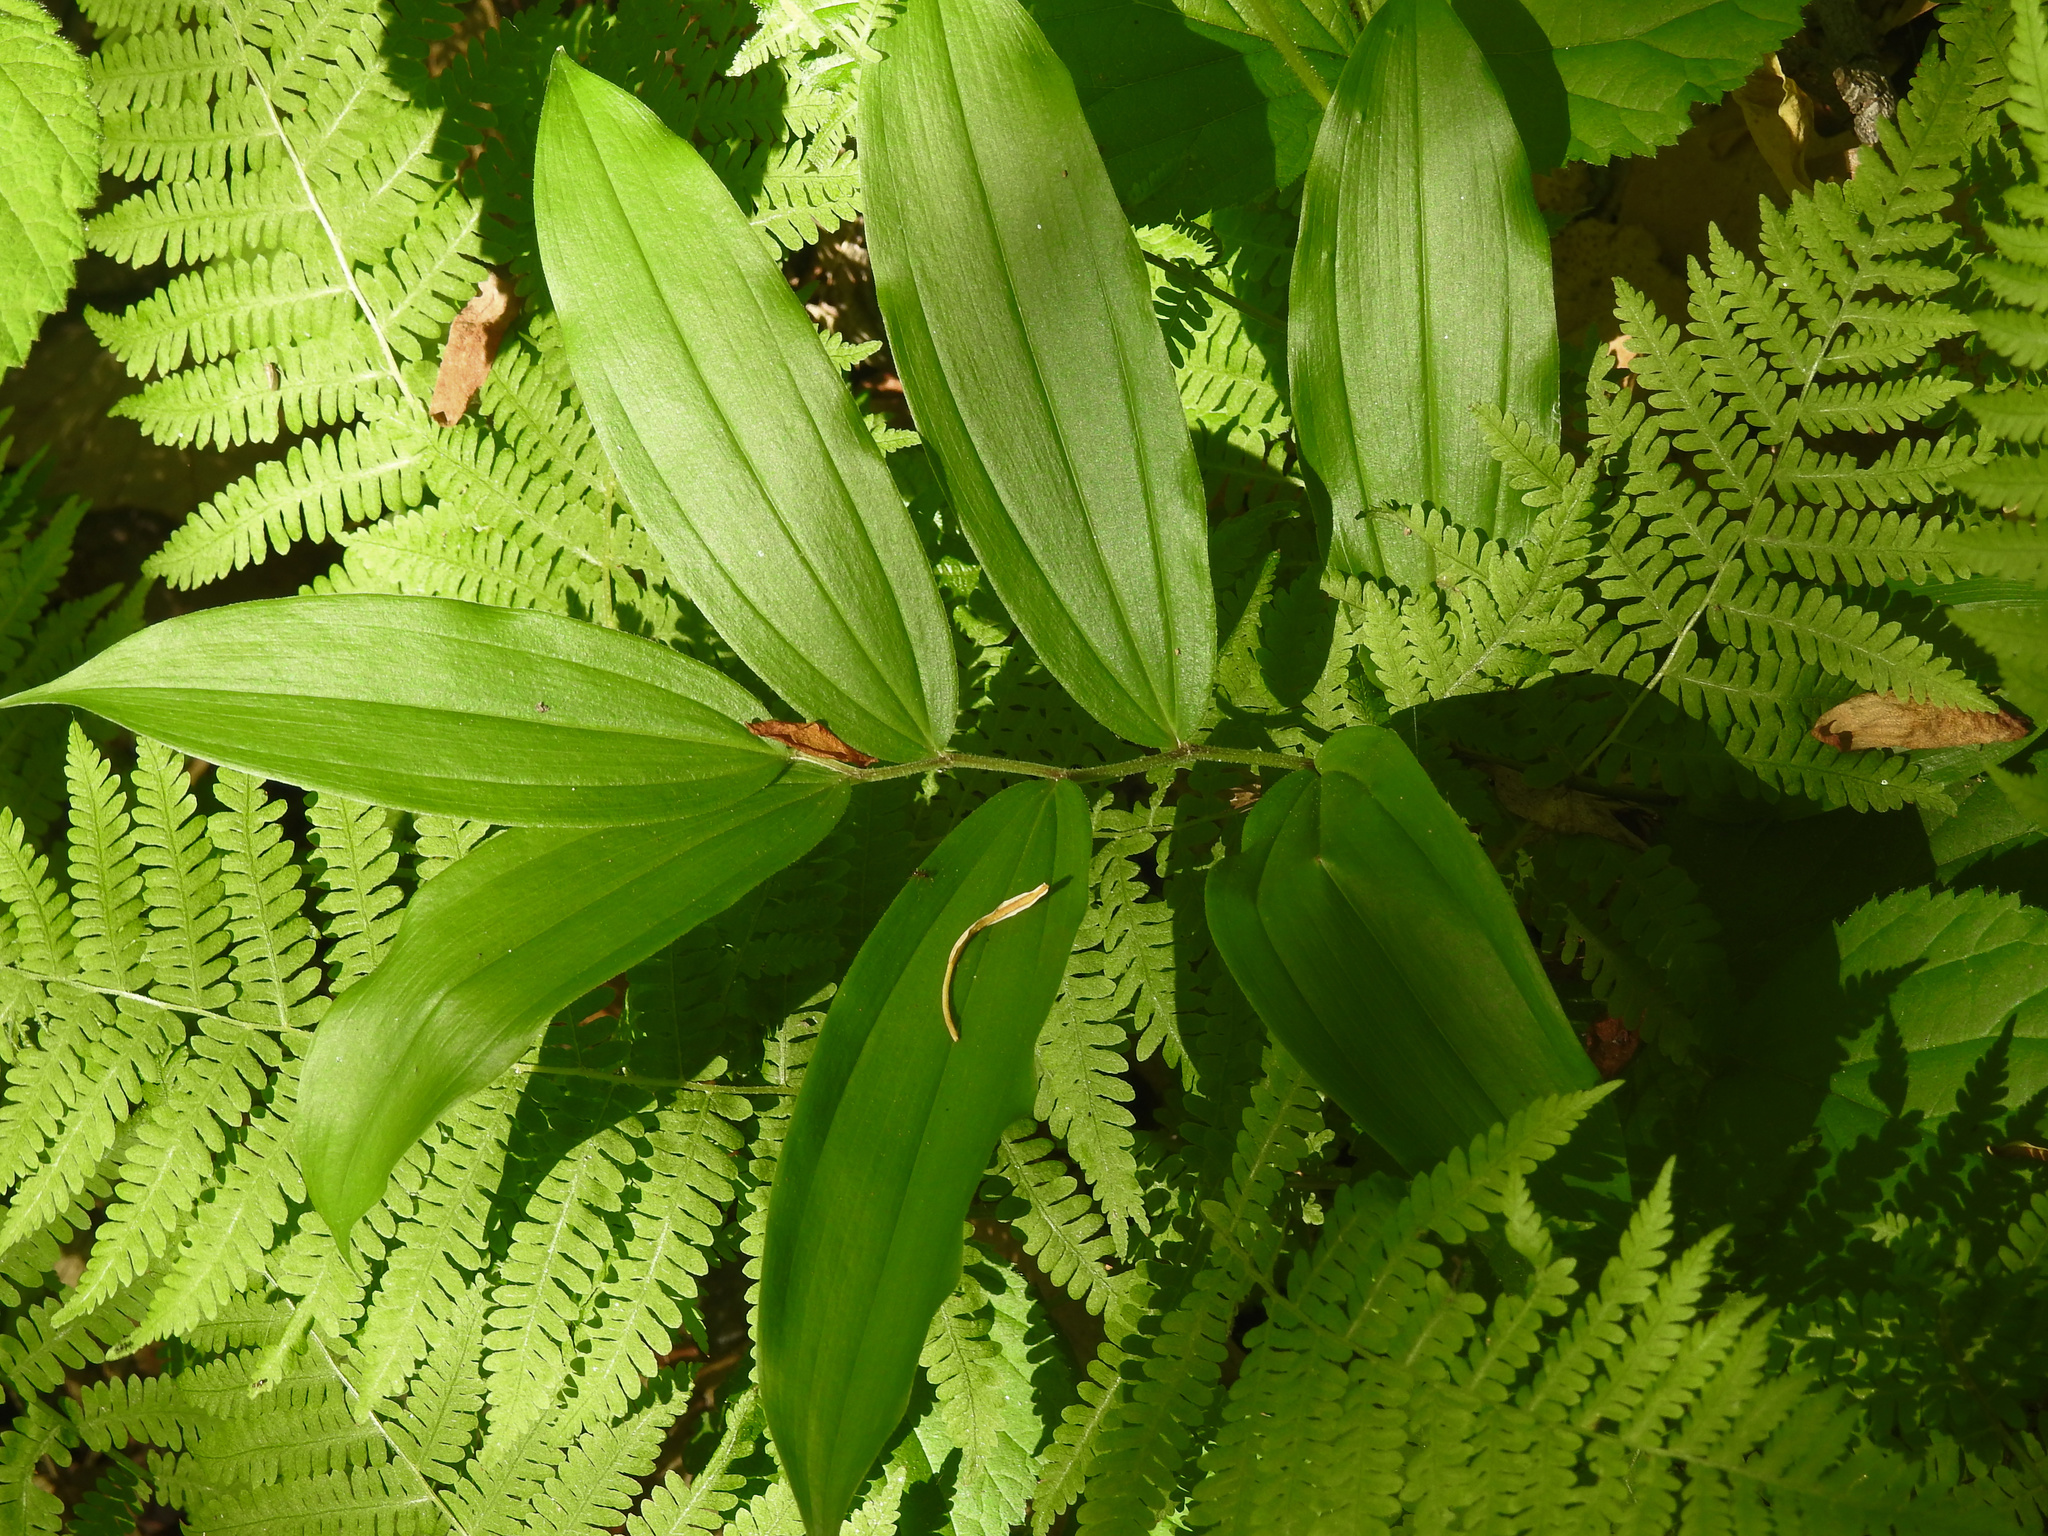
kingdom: Plantae
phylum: Tracheophyta
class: Liliopsida
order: Asparagales
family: Asparagaceae
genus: Maianthemum
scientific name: Maianthemum racemosum
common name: False spikenard
